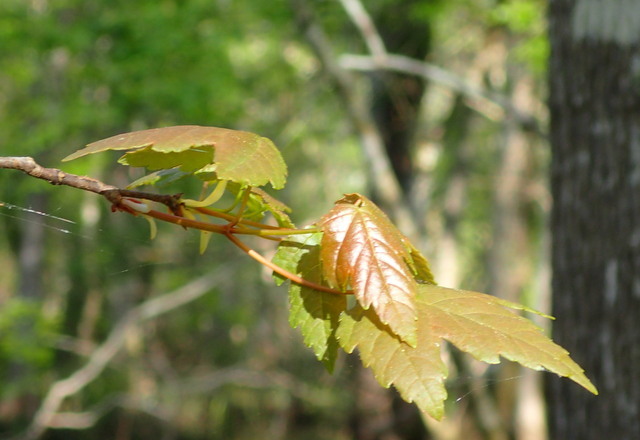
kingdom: Plantae
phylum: Tracheophyta
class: Magnoliopsida
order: Sapindales
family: Sapindaceae
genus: Acer
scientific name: Acer rubrum
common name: Red maple
